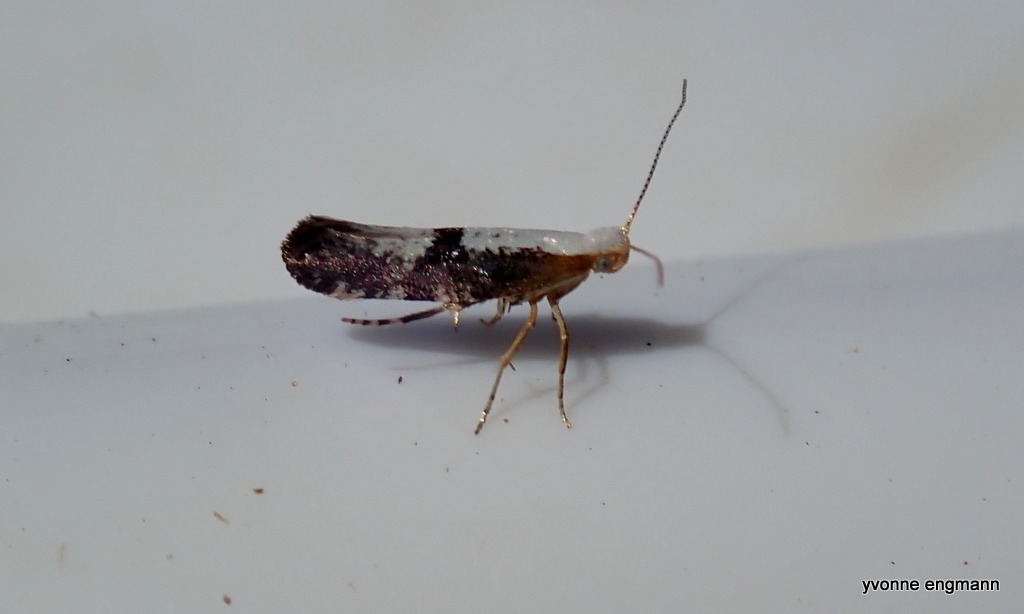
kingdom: Animalia
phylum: Arthropoda
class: Insecta
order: Lepidoptera
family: Argyresthiidae
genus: Argyresthia
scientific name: Argyresthia spinosella
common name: Blackthorn argent
